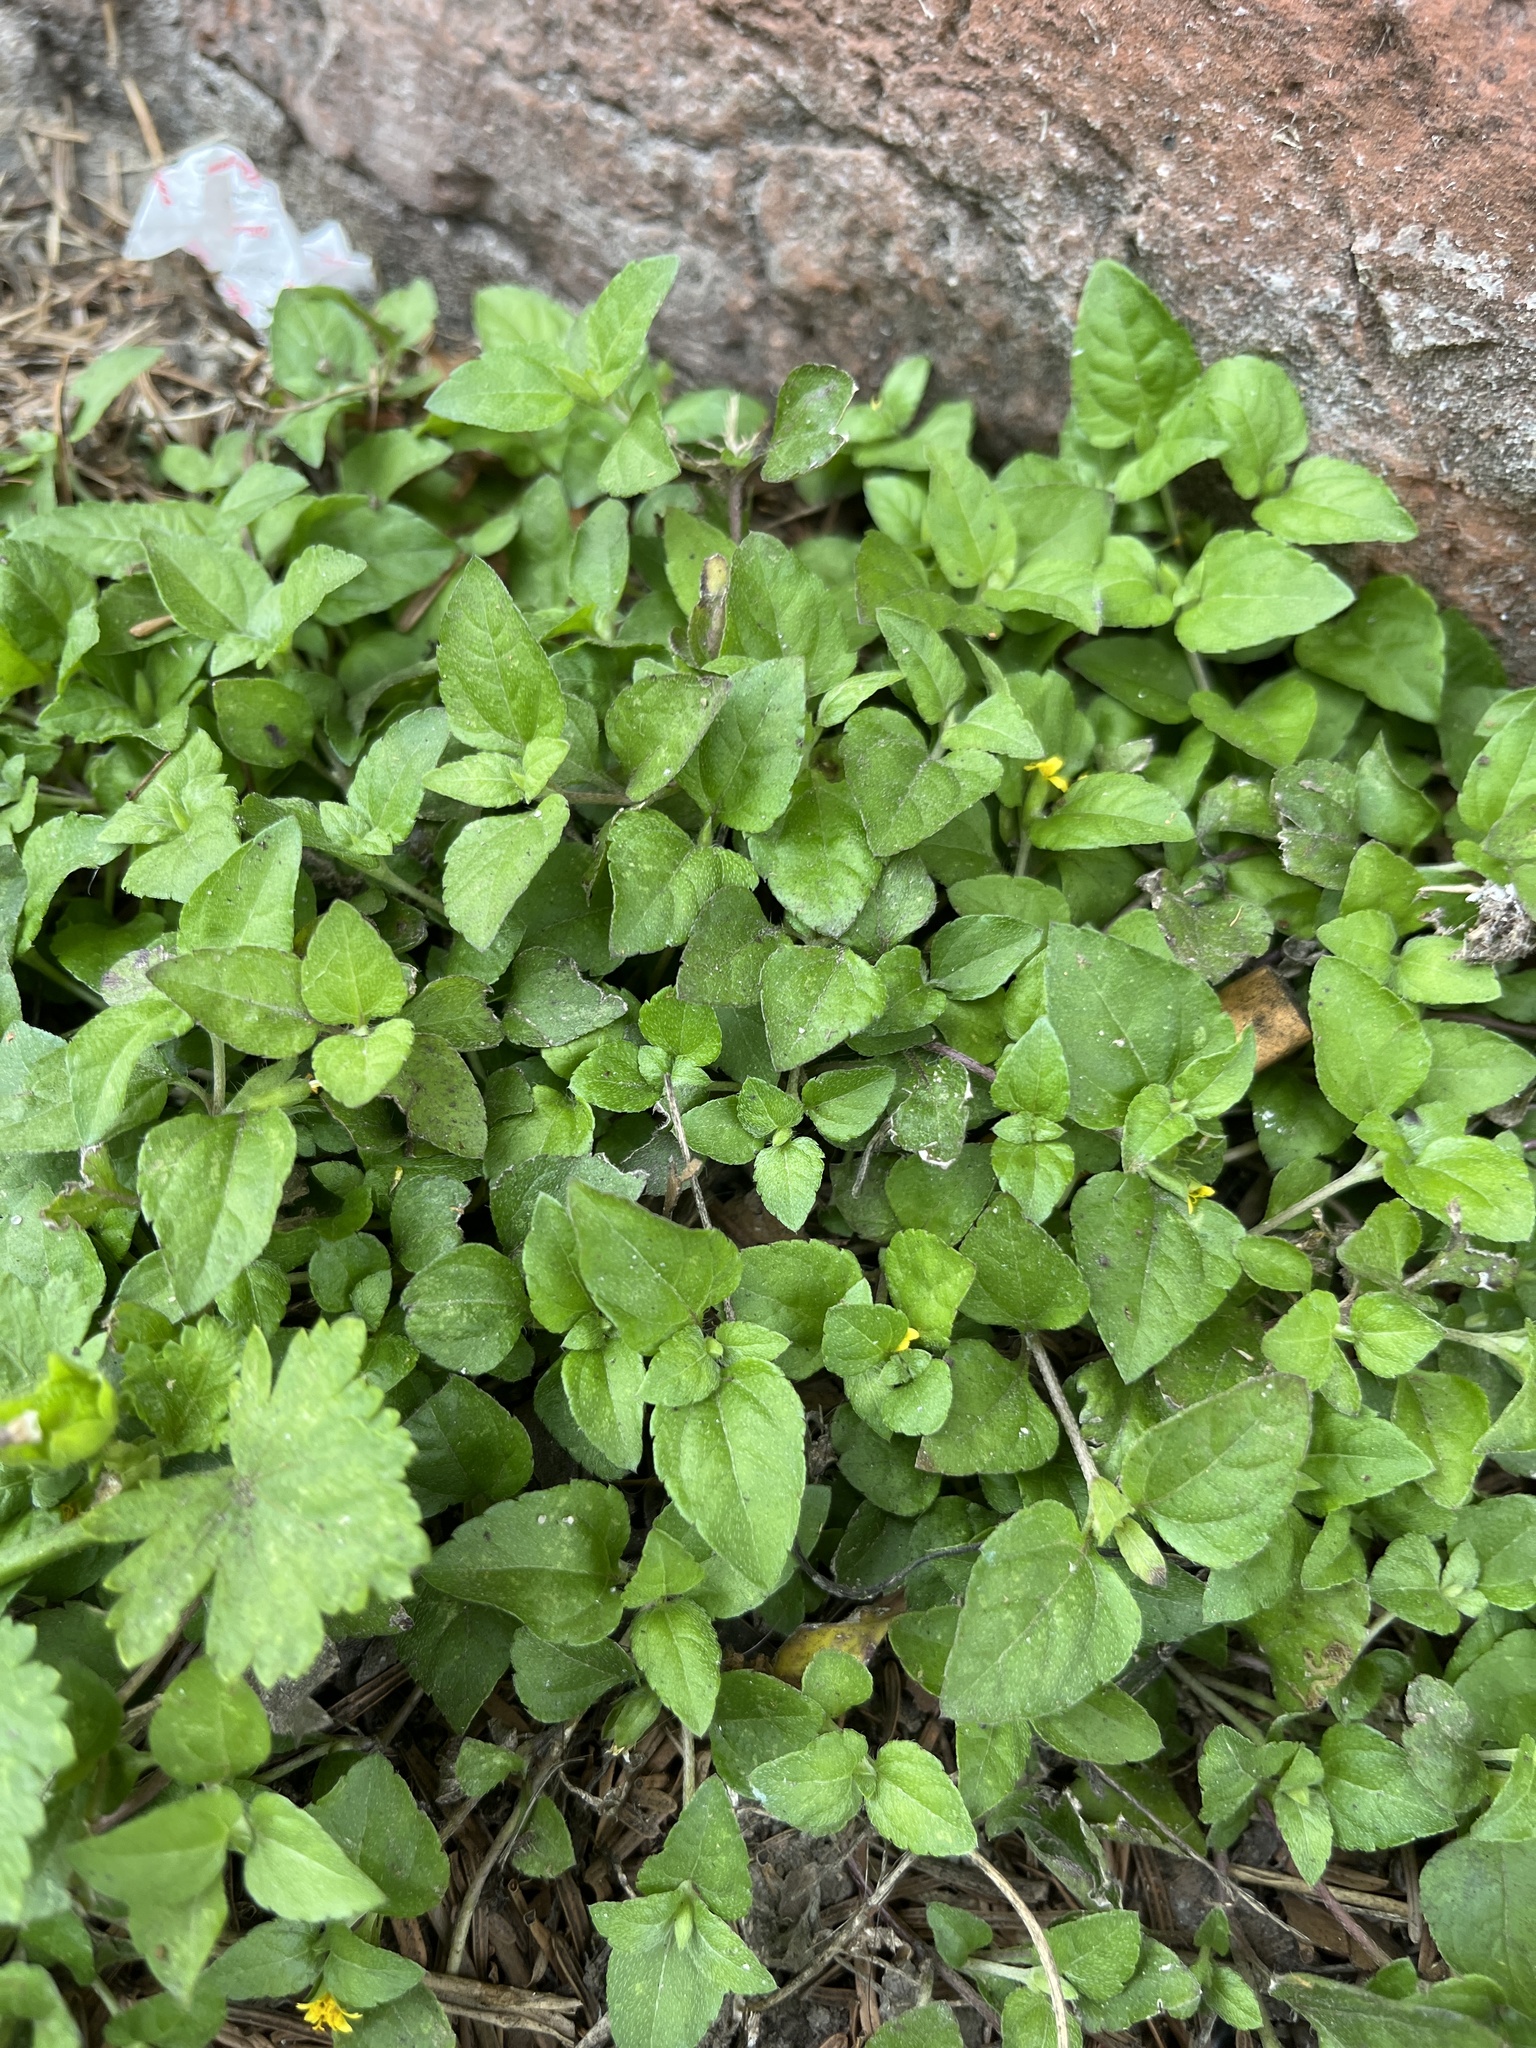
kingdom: Plantae
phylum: Tracheophyta
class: Magnoliopsida
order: Asterales
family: Asteraceae
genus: Calyptocarpus
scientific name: Calyptocarpus vialis
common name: Straggler daisy
